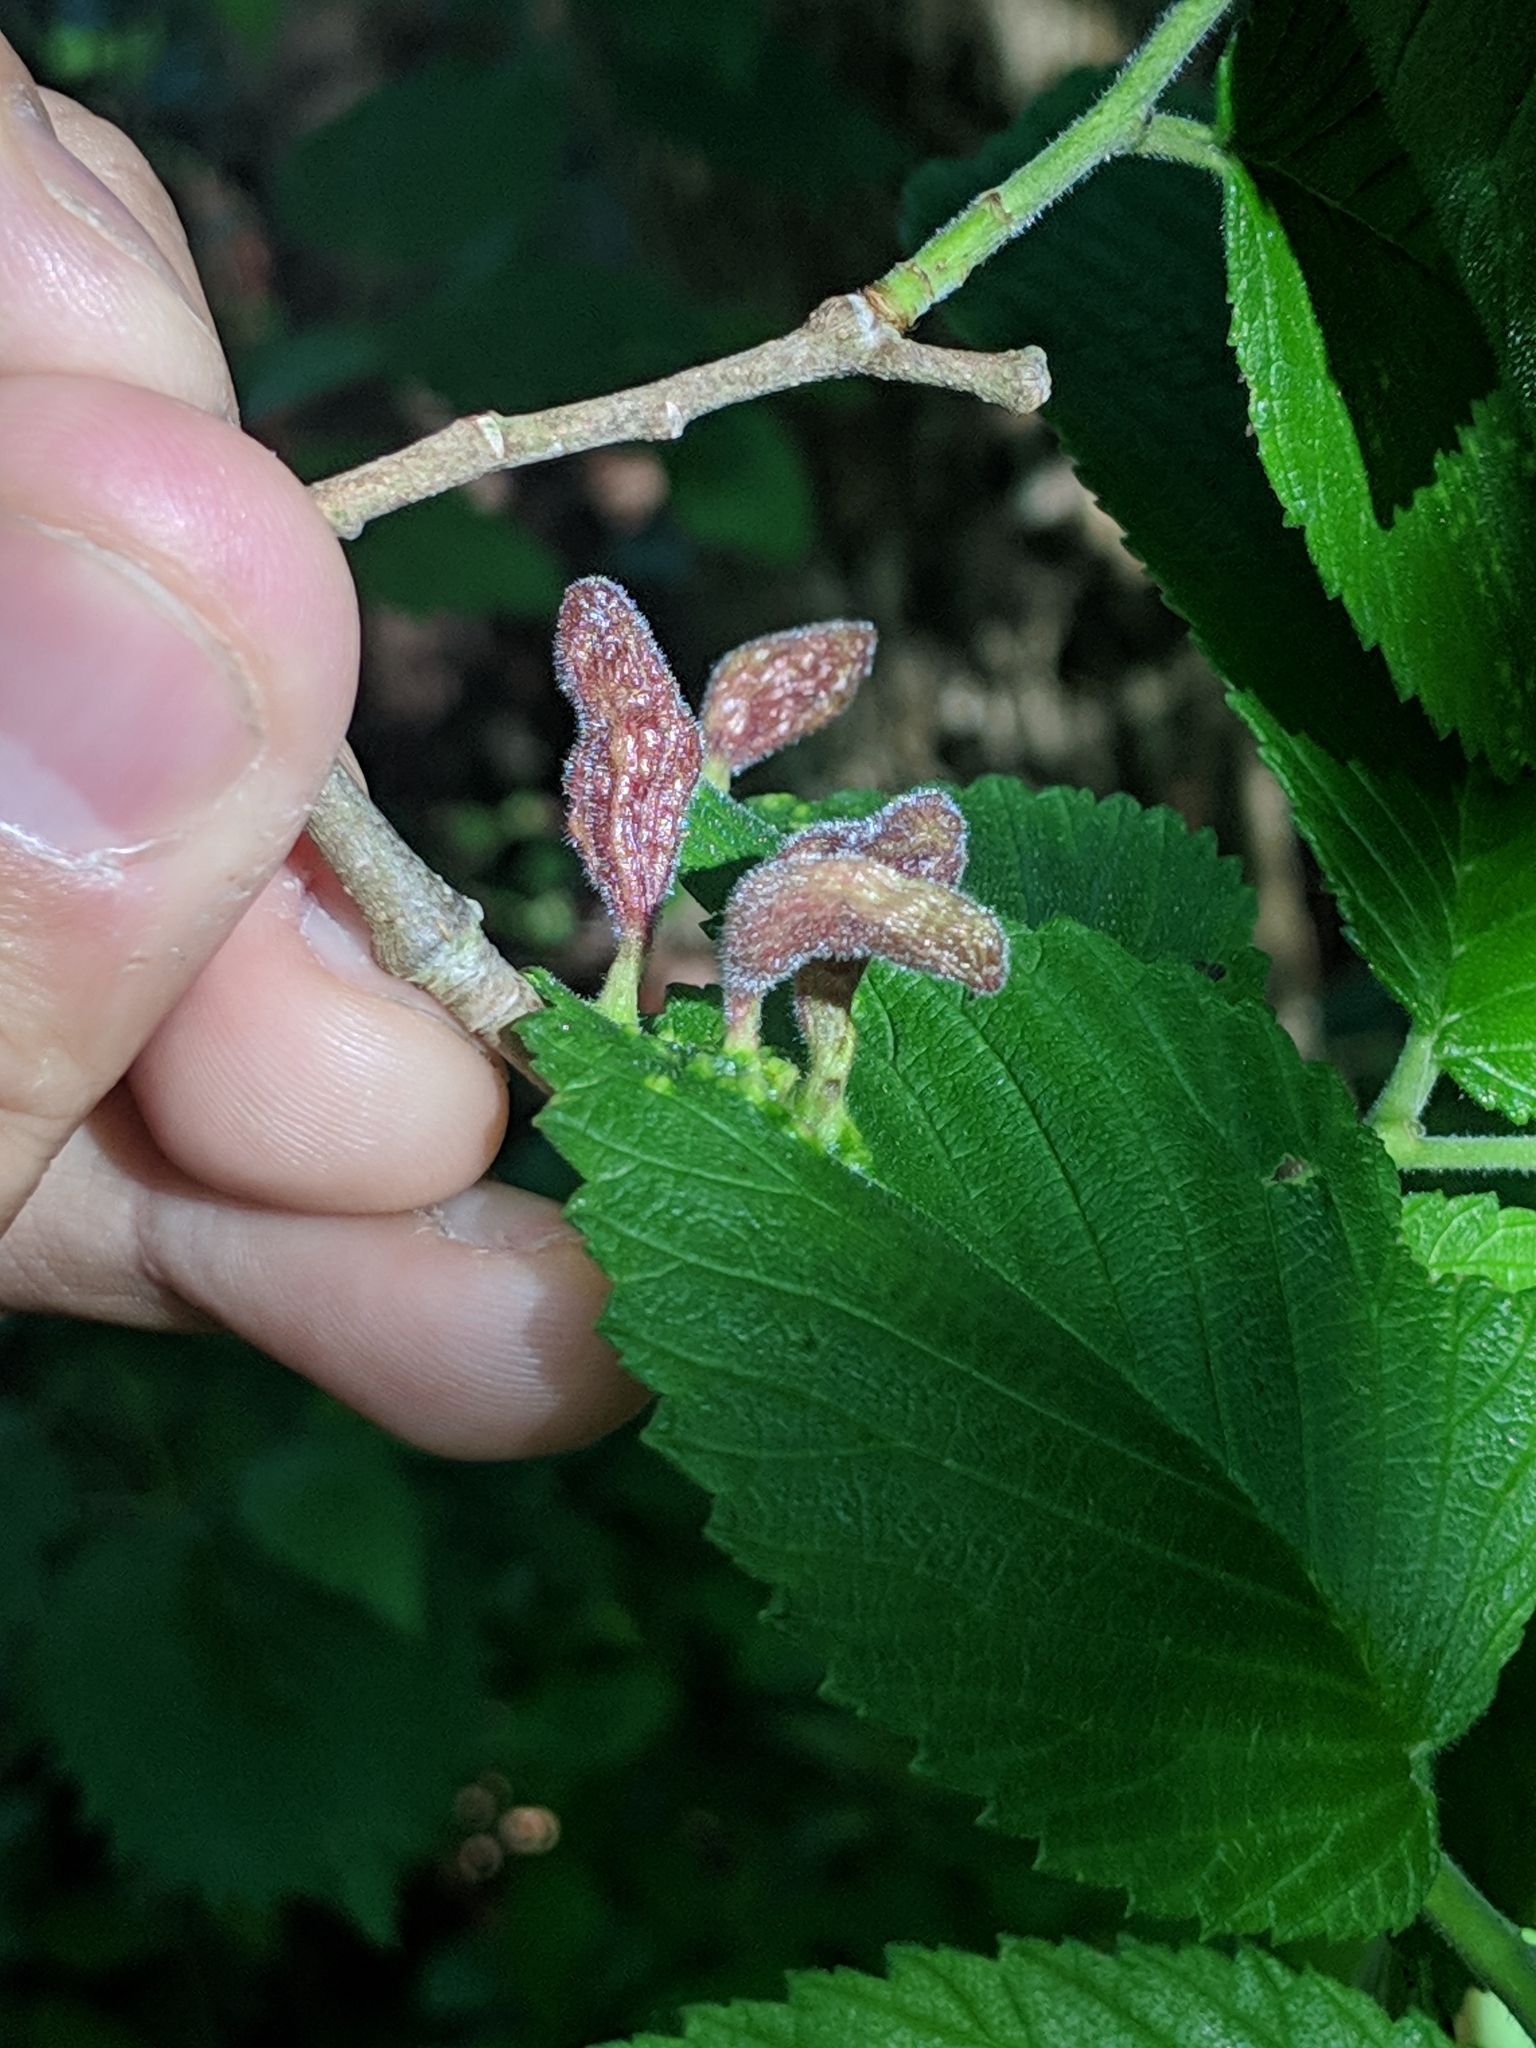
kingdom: Animalia
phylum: Arthropoda
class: Insecta
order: Hemiptera
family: Aphididae
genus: Tetraneura
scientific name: Tetraneura nigriabdominalis
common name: Aphid
